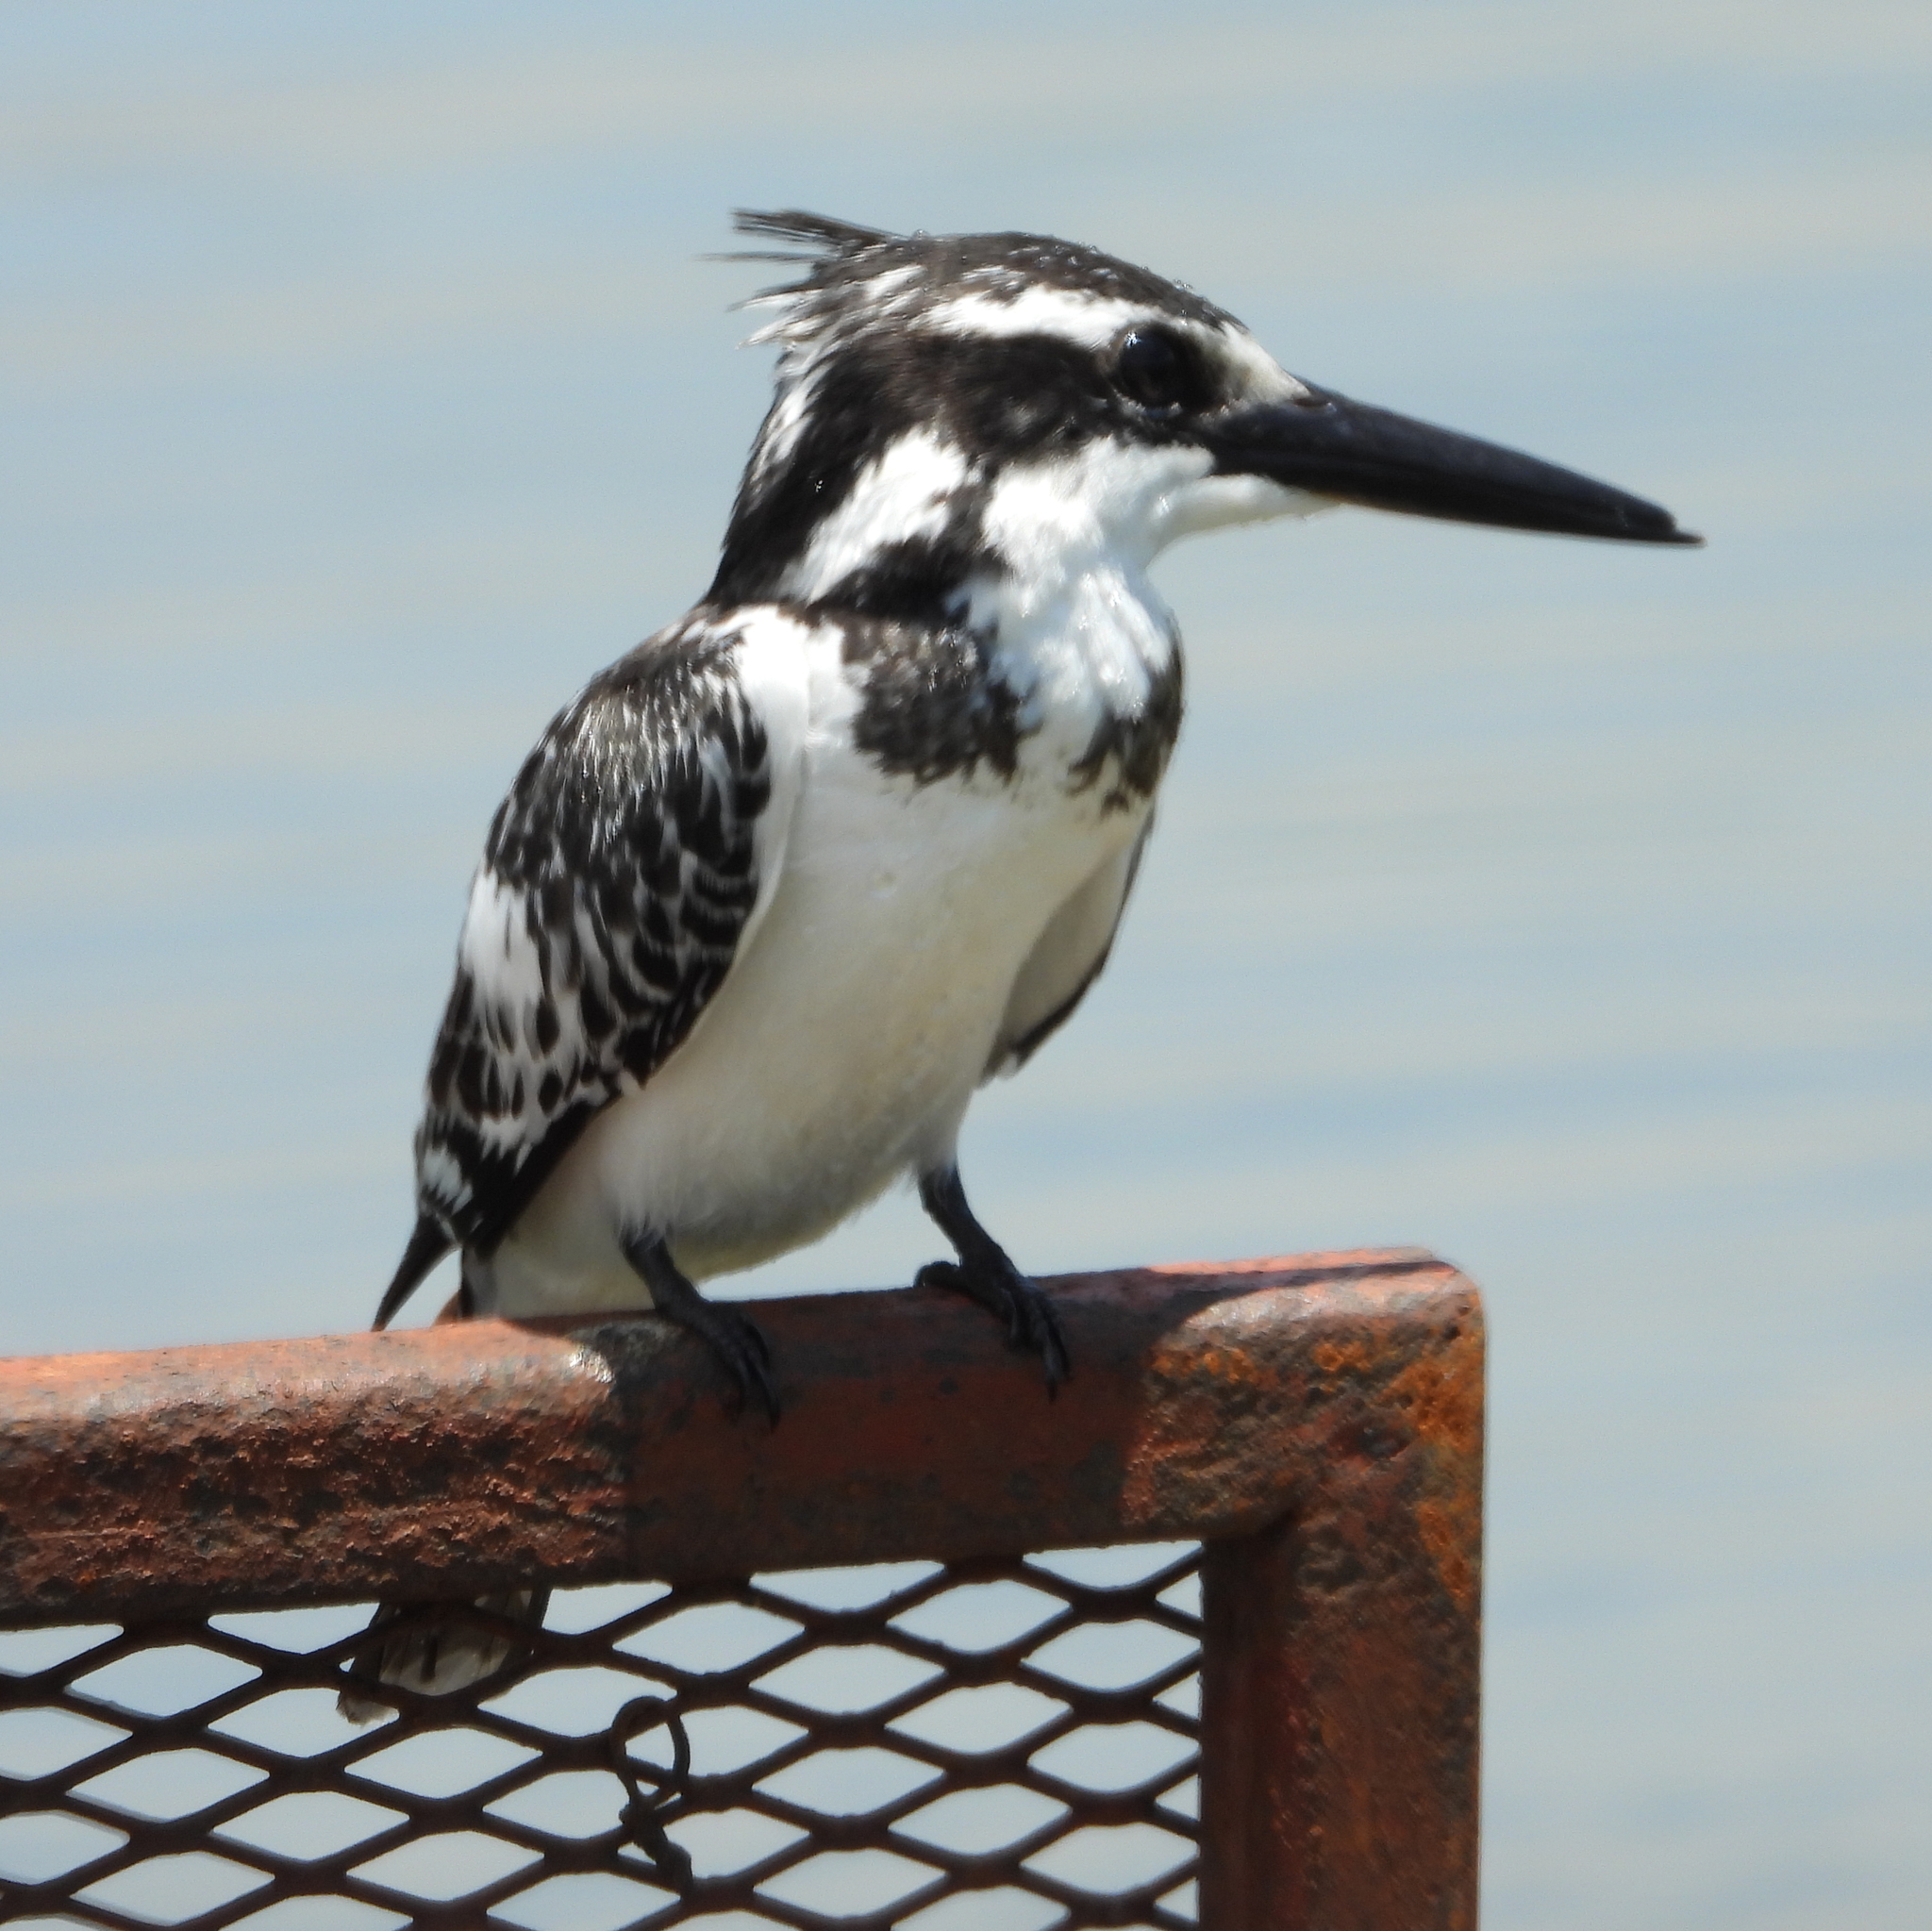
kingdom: Animalia
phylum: Chordata
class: Aves
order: Coraciiformes
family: Alcedinidae
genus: Ceryle
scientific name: Ceryle rudis
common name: Pied kingfisher
